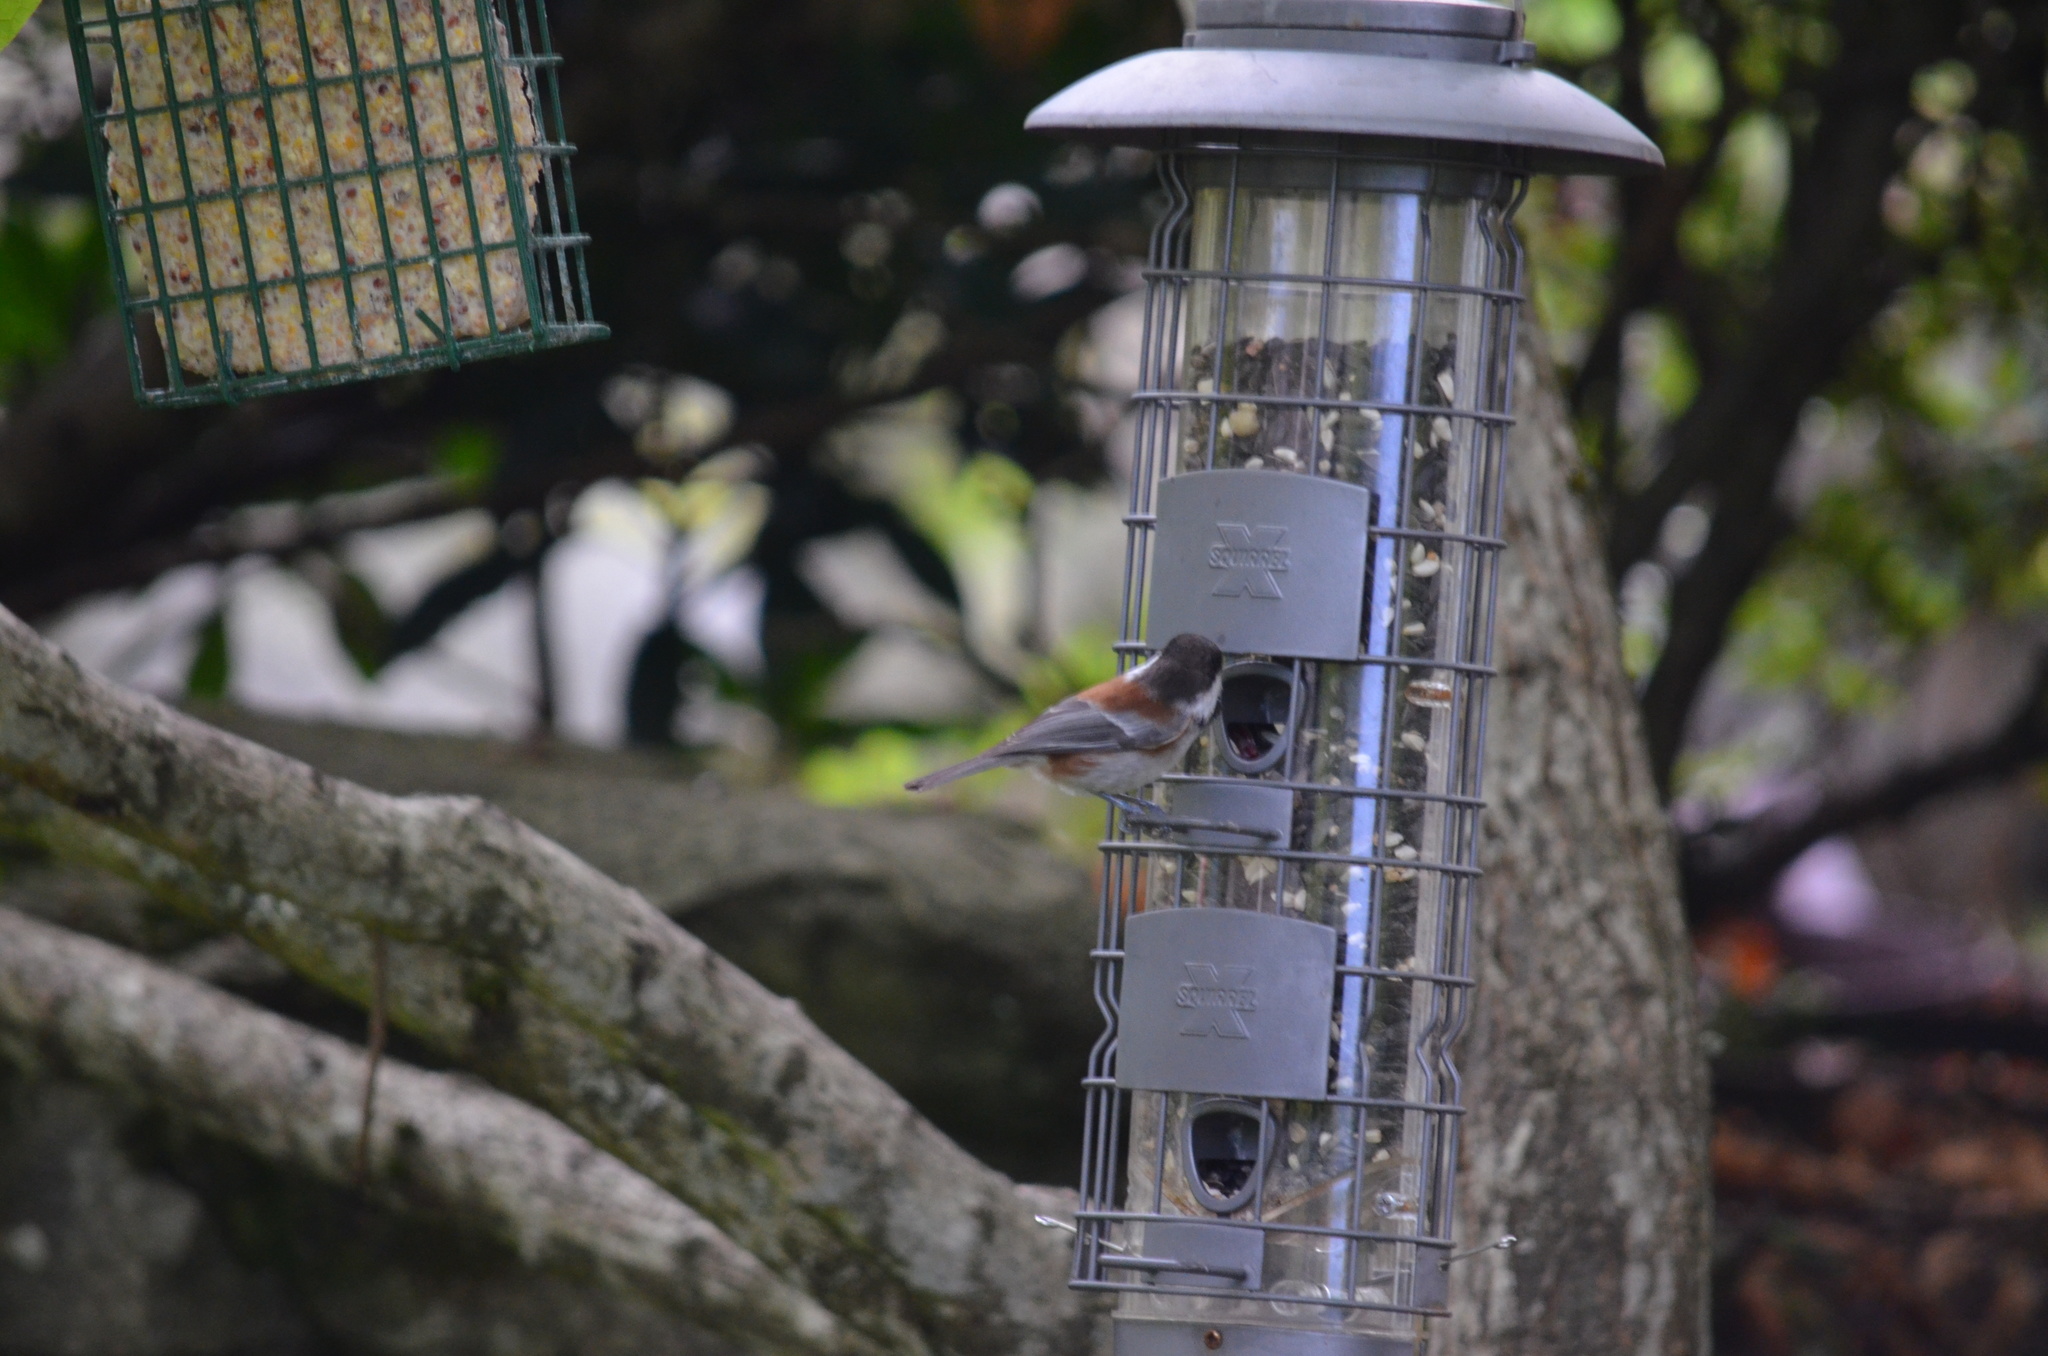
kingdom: Animalia
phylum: Chordata
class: Aves
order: Passeriformes
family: Paridae
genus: Poecile
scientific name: Poecile rufescens
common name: Chestnut-backed chickadee
